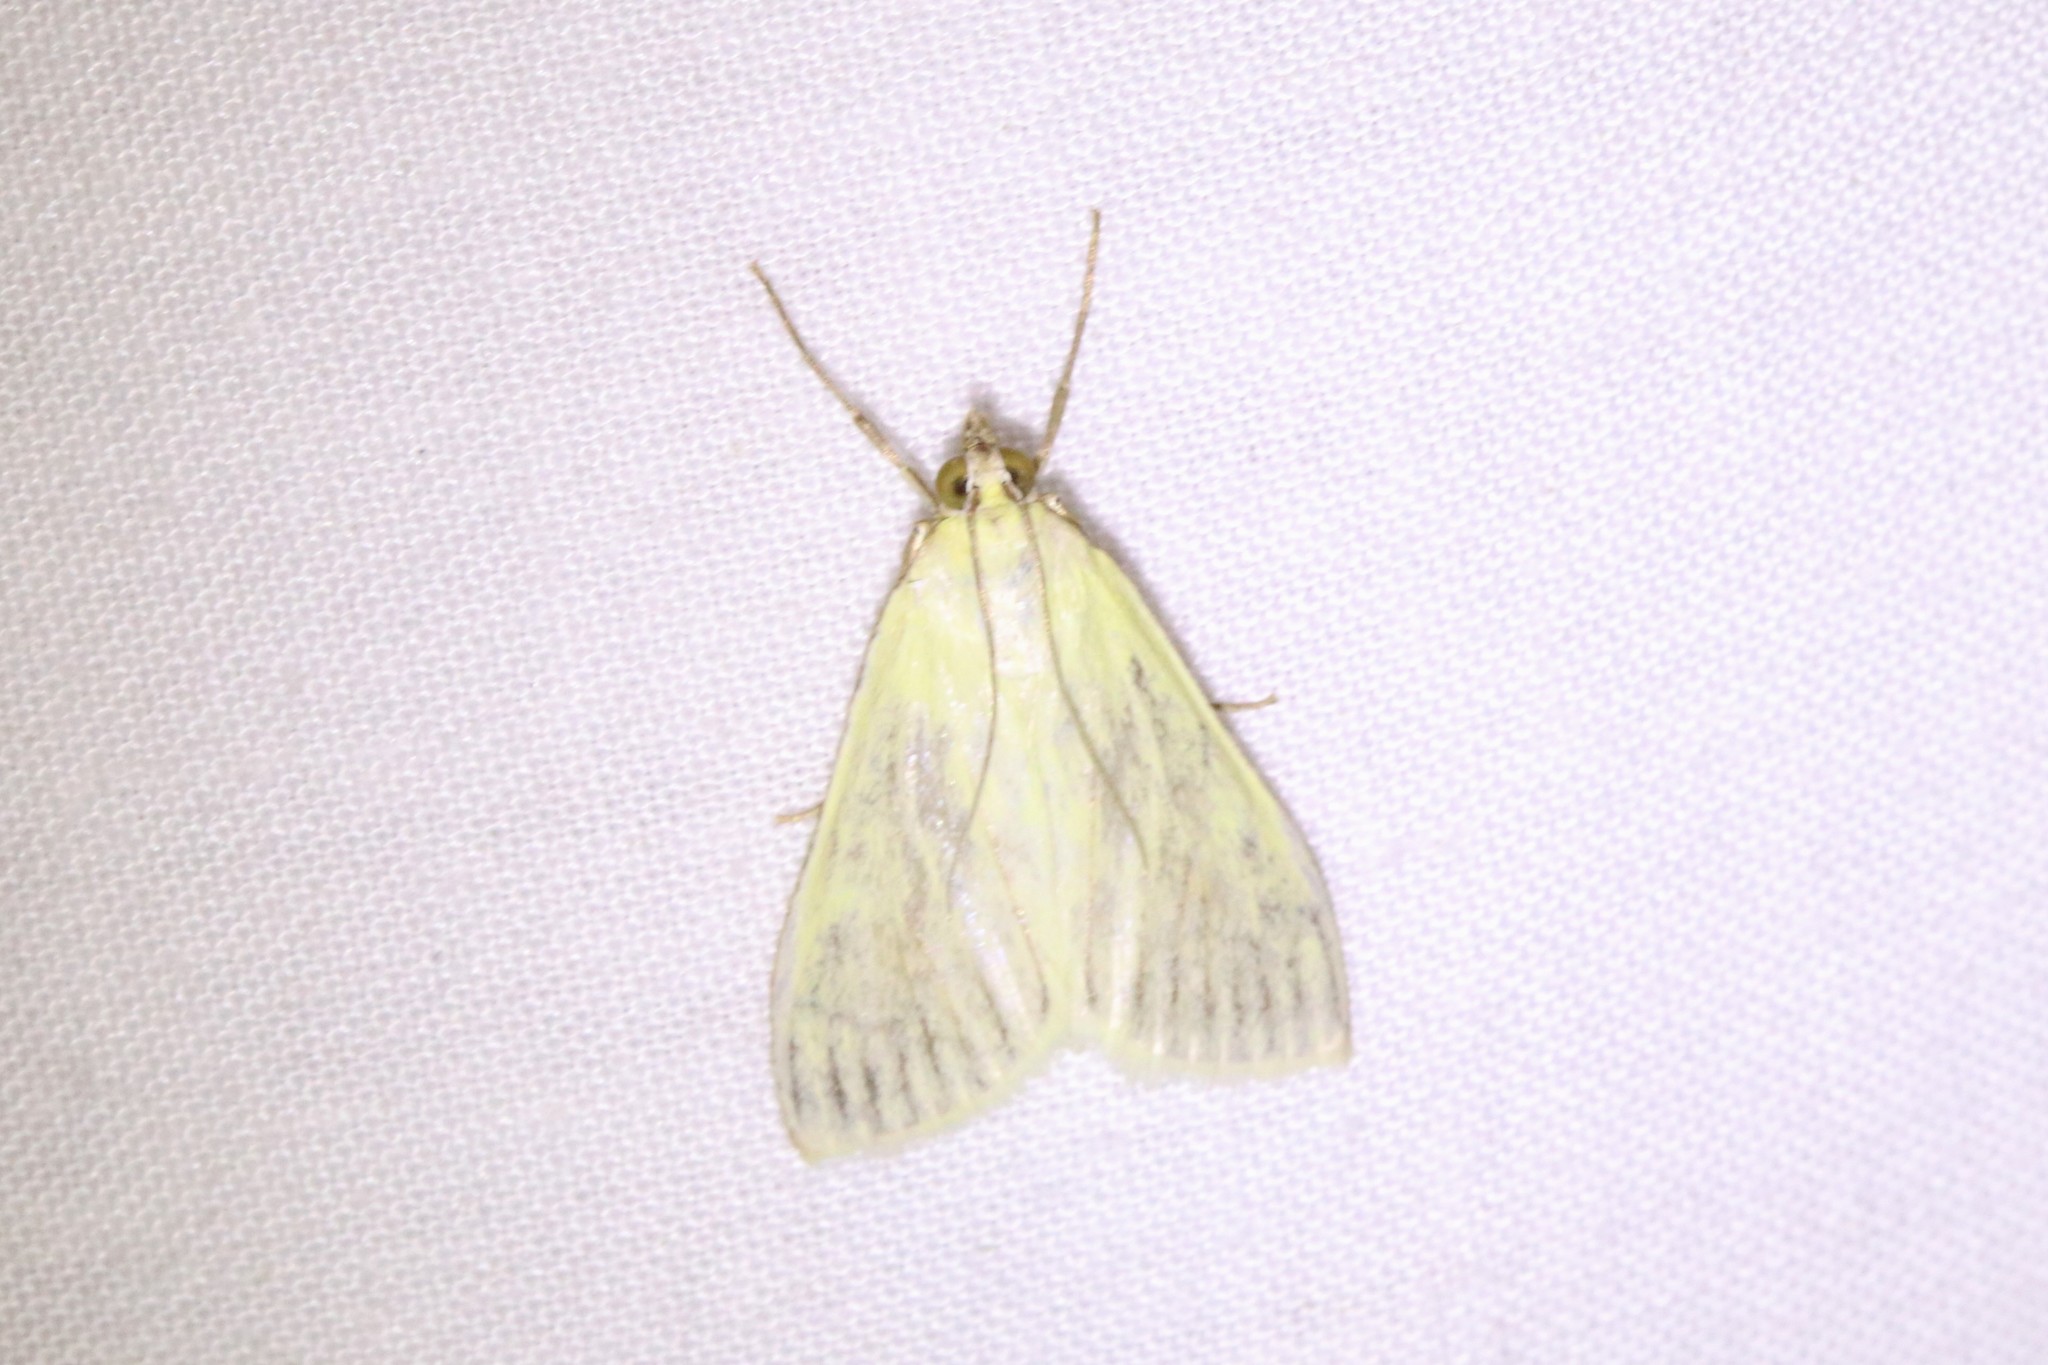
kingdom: Animalia
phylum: Arthropoda
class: Insecta
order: Lepidoptera
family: Crambidae
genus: Sitochroa
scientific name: Sitochroa palealis
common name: Greenish-yellow sitochroa moth
